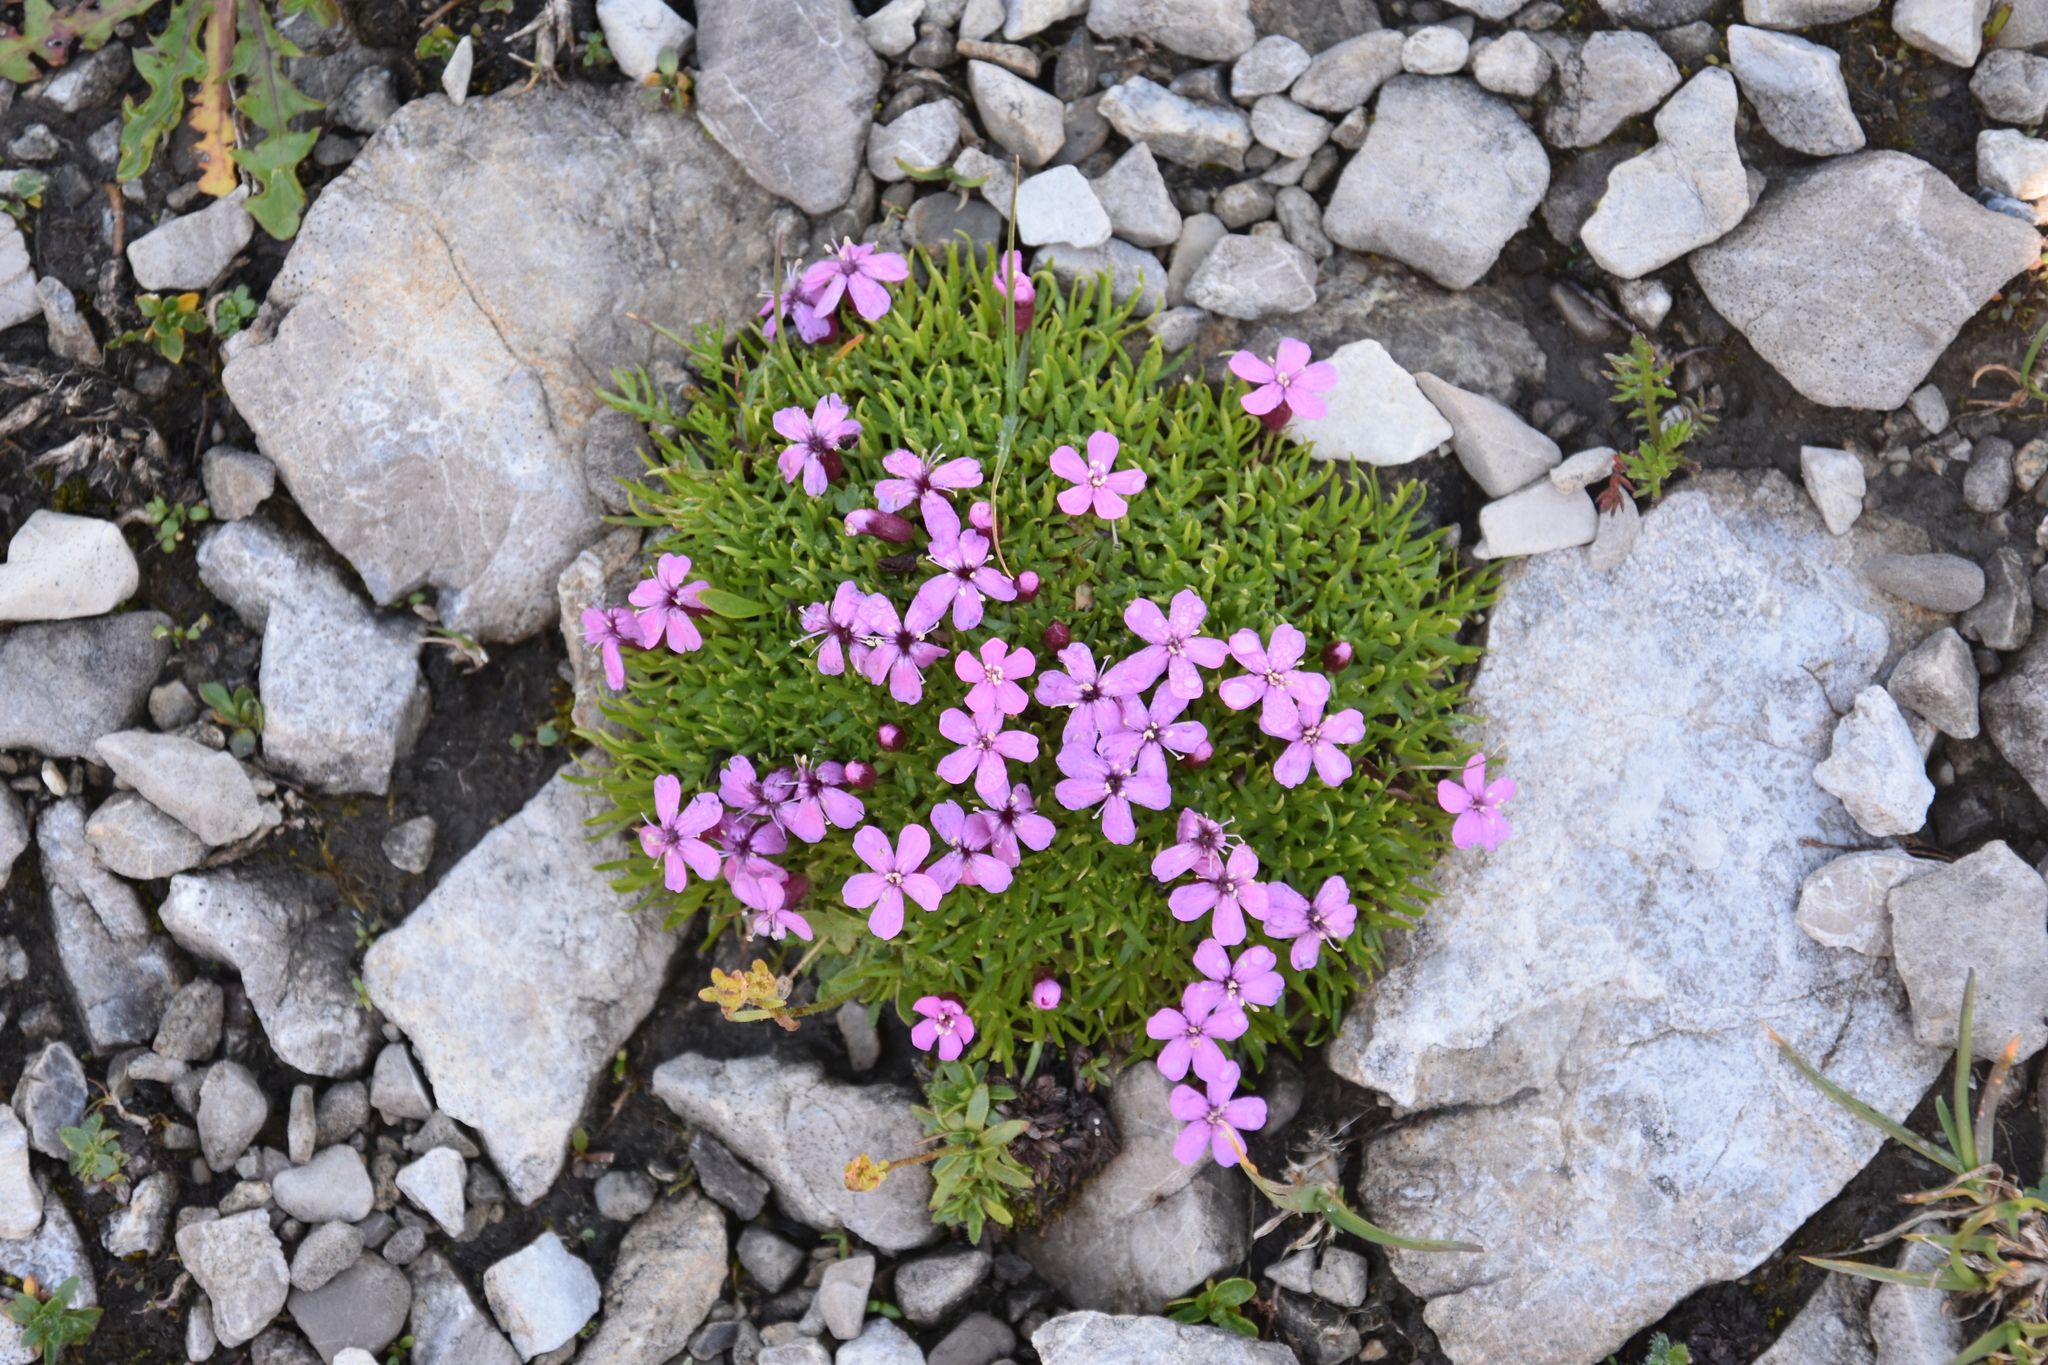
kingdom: Plantae
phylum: Tracheophyta
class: Magnoliopsida
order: Caryophyllales
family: Caryophyllaceae
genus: Silene
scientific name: Silene acaulis
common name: Moss campion
